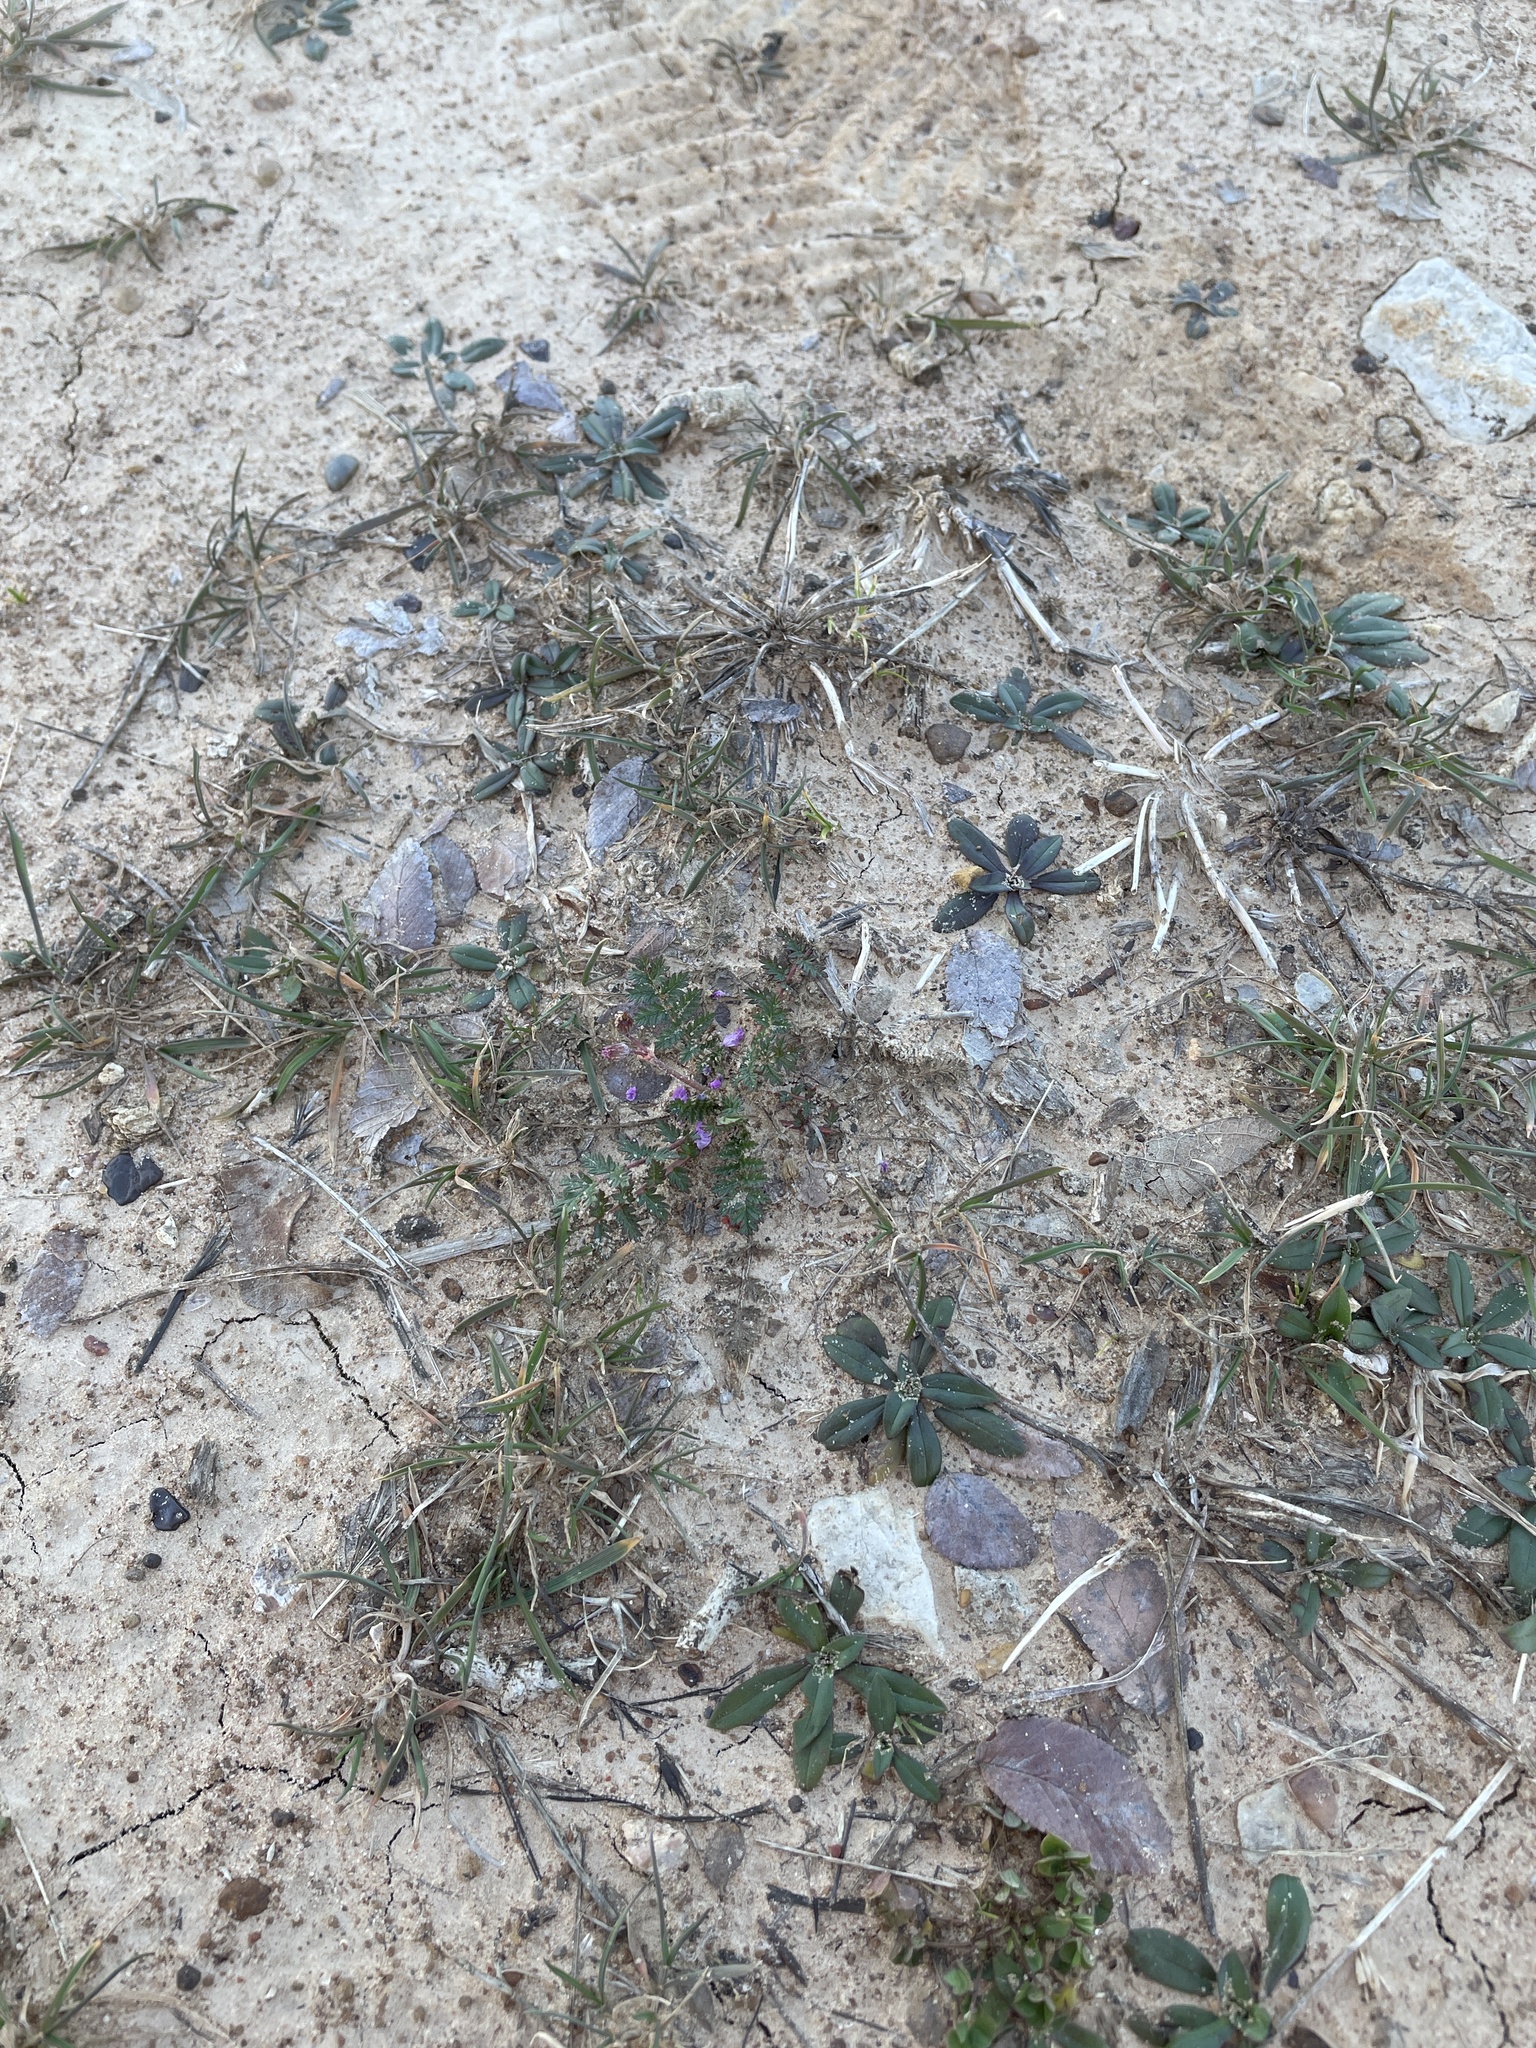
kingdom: Plantae
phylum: Tracheophyta
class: Magnoliopsida
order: Geraniales
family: Geraniaceae
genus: Erodium
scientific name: Erodium cicutarium
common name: Common stork's-bill
